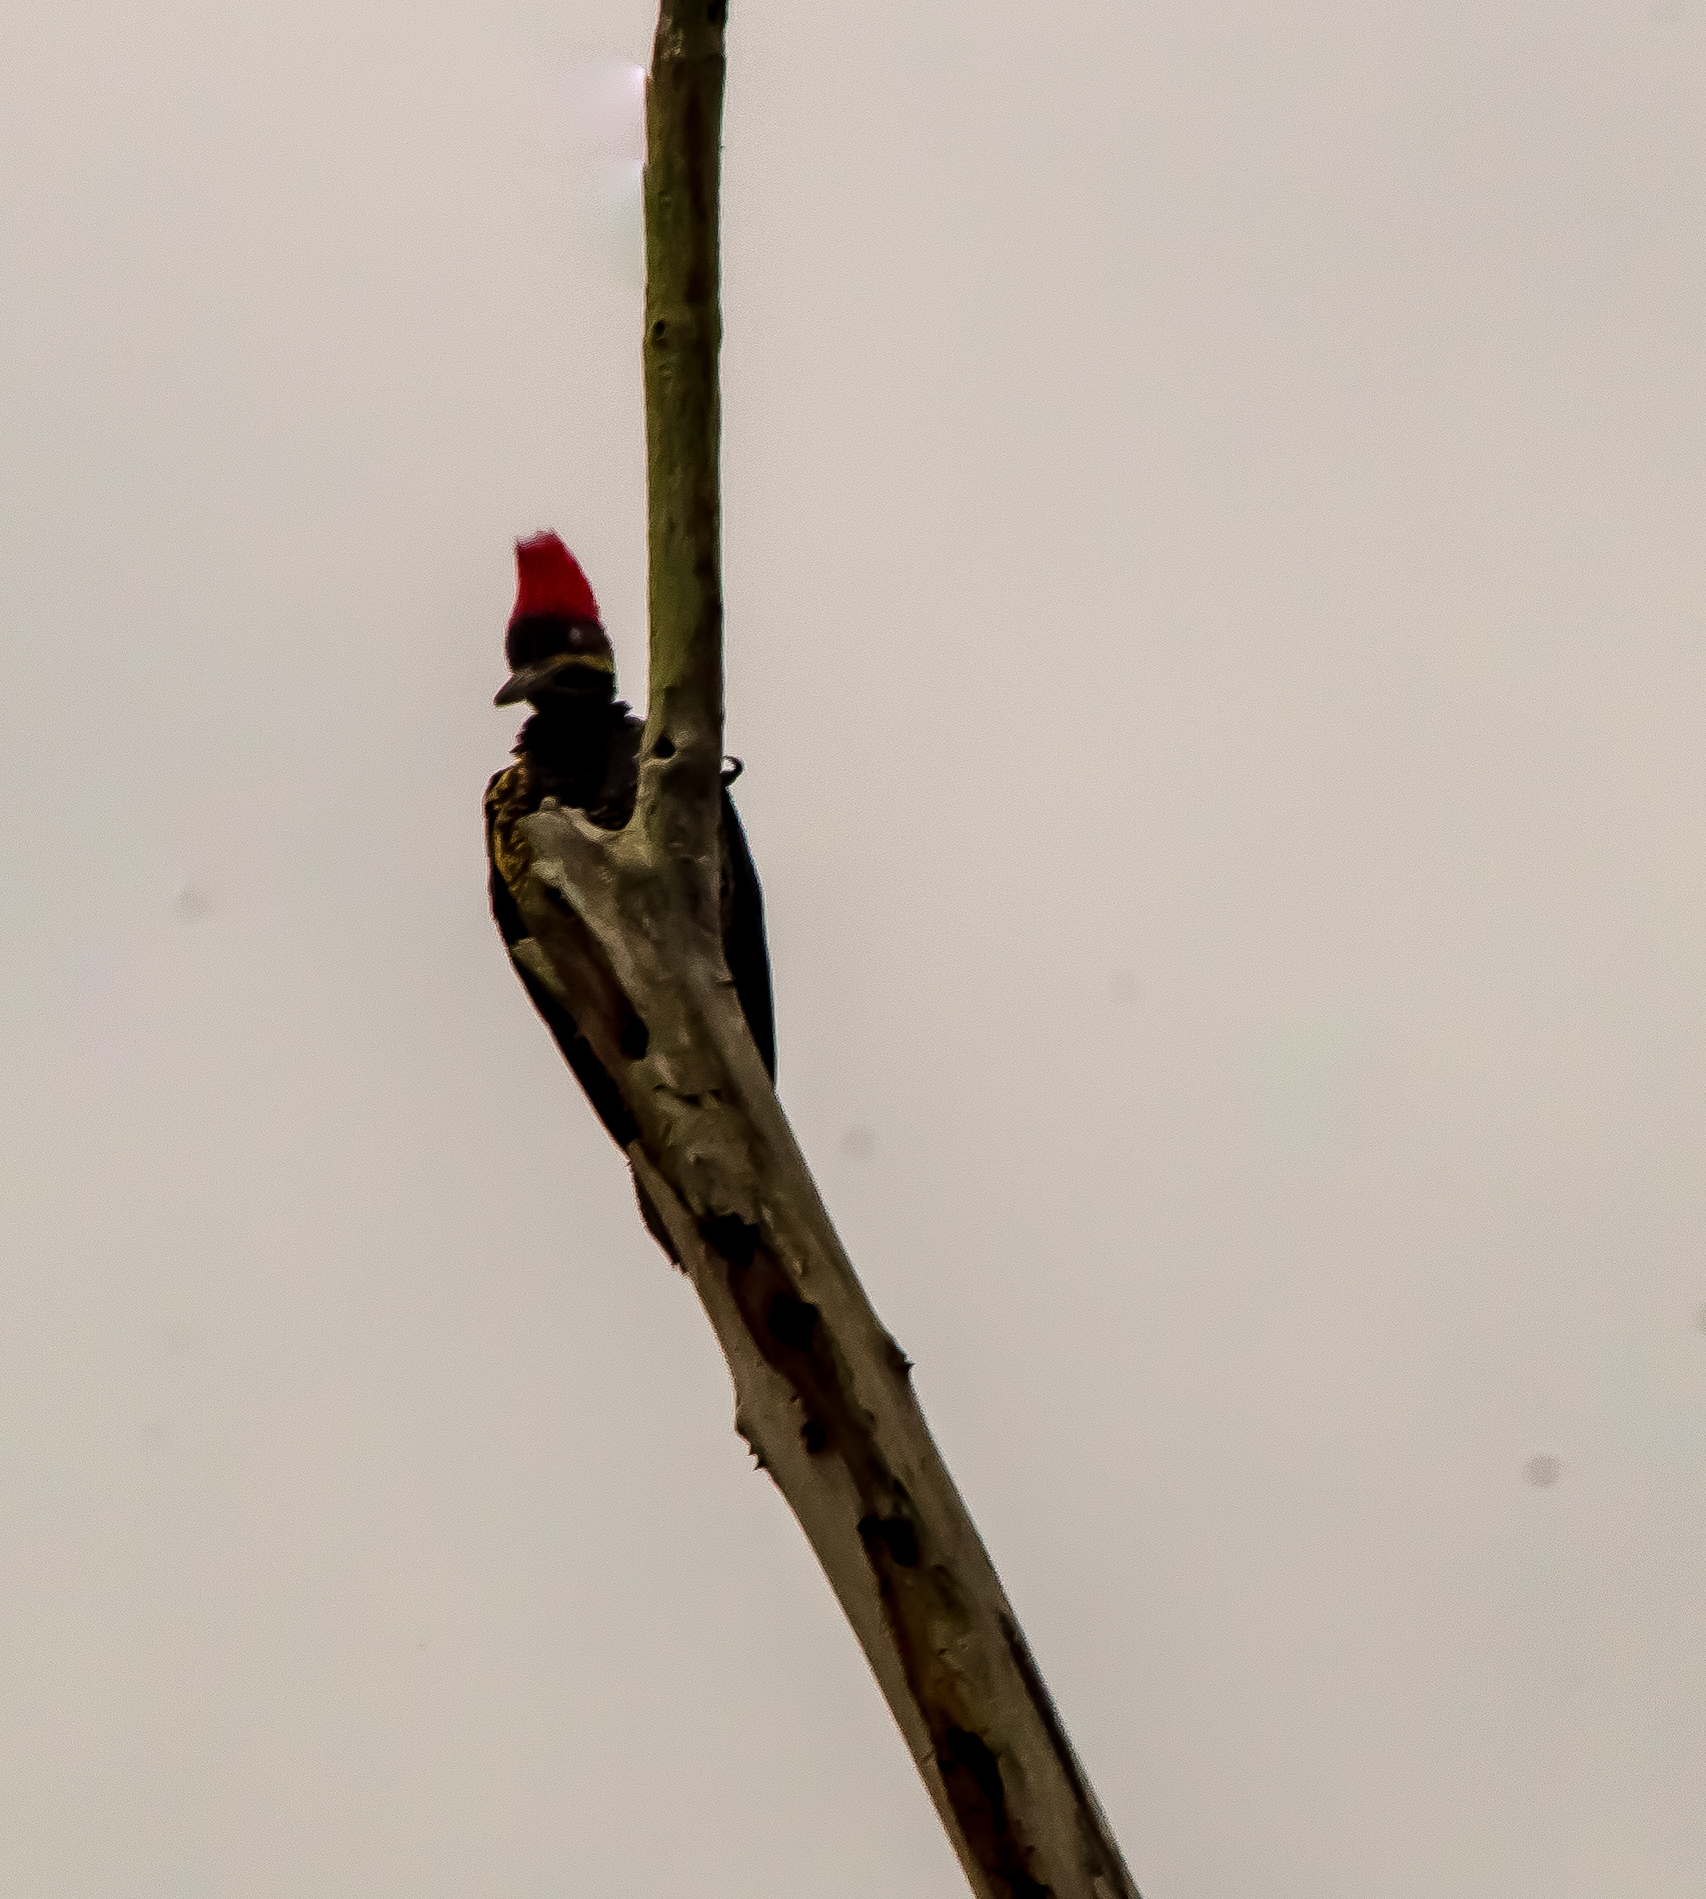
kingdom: Animalia
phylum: Chordata
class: Aves
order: Piciformes
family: Picidae
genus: Dryocopus
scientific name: Dryocopus lineatus
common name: Lineated woodpecker
